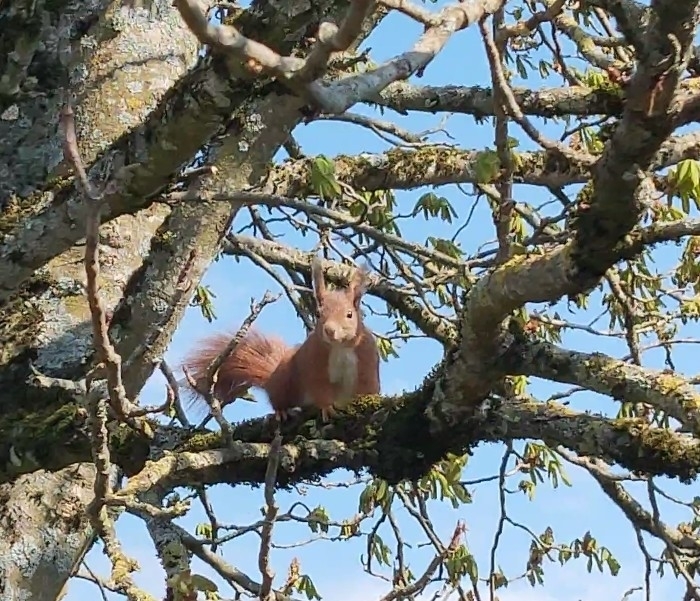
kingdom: Animalia
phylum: Chordata
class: Mammalia
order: Rodentia
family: Sciuridae
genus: Sciurus
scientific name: Sciurus vulgaris
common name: Eurasian red squirrel
